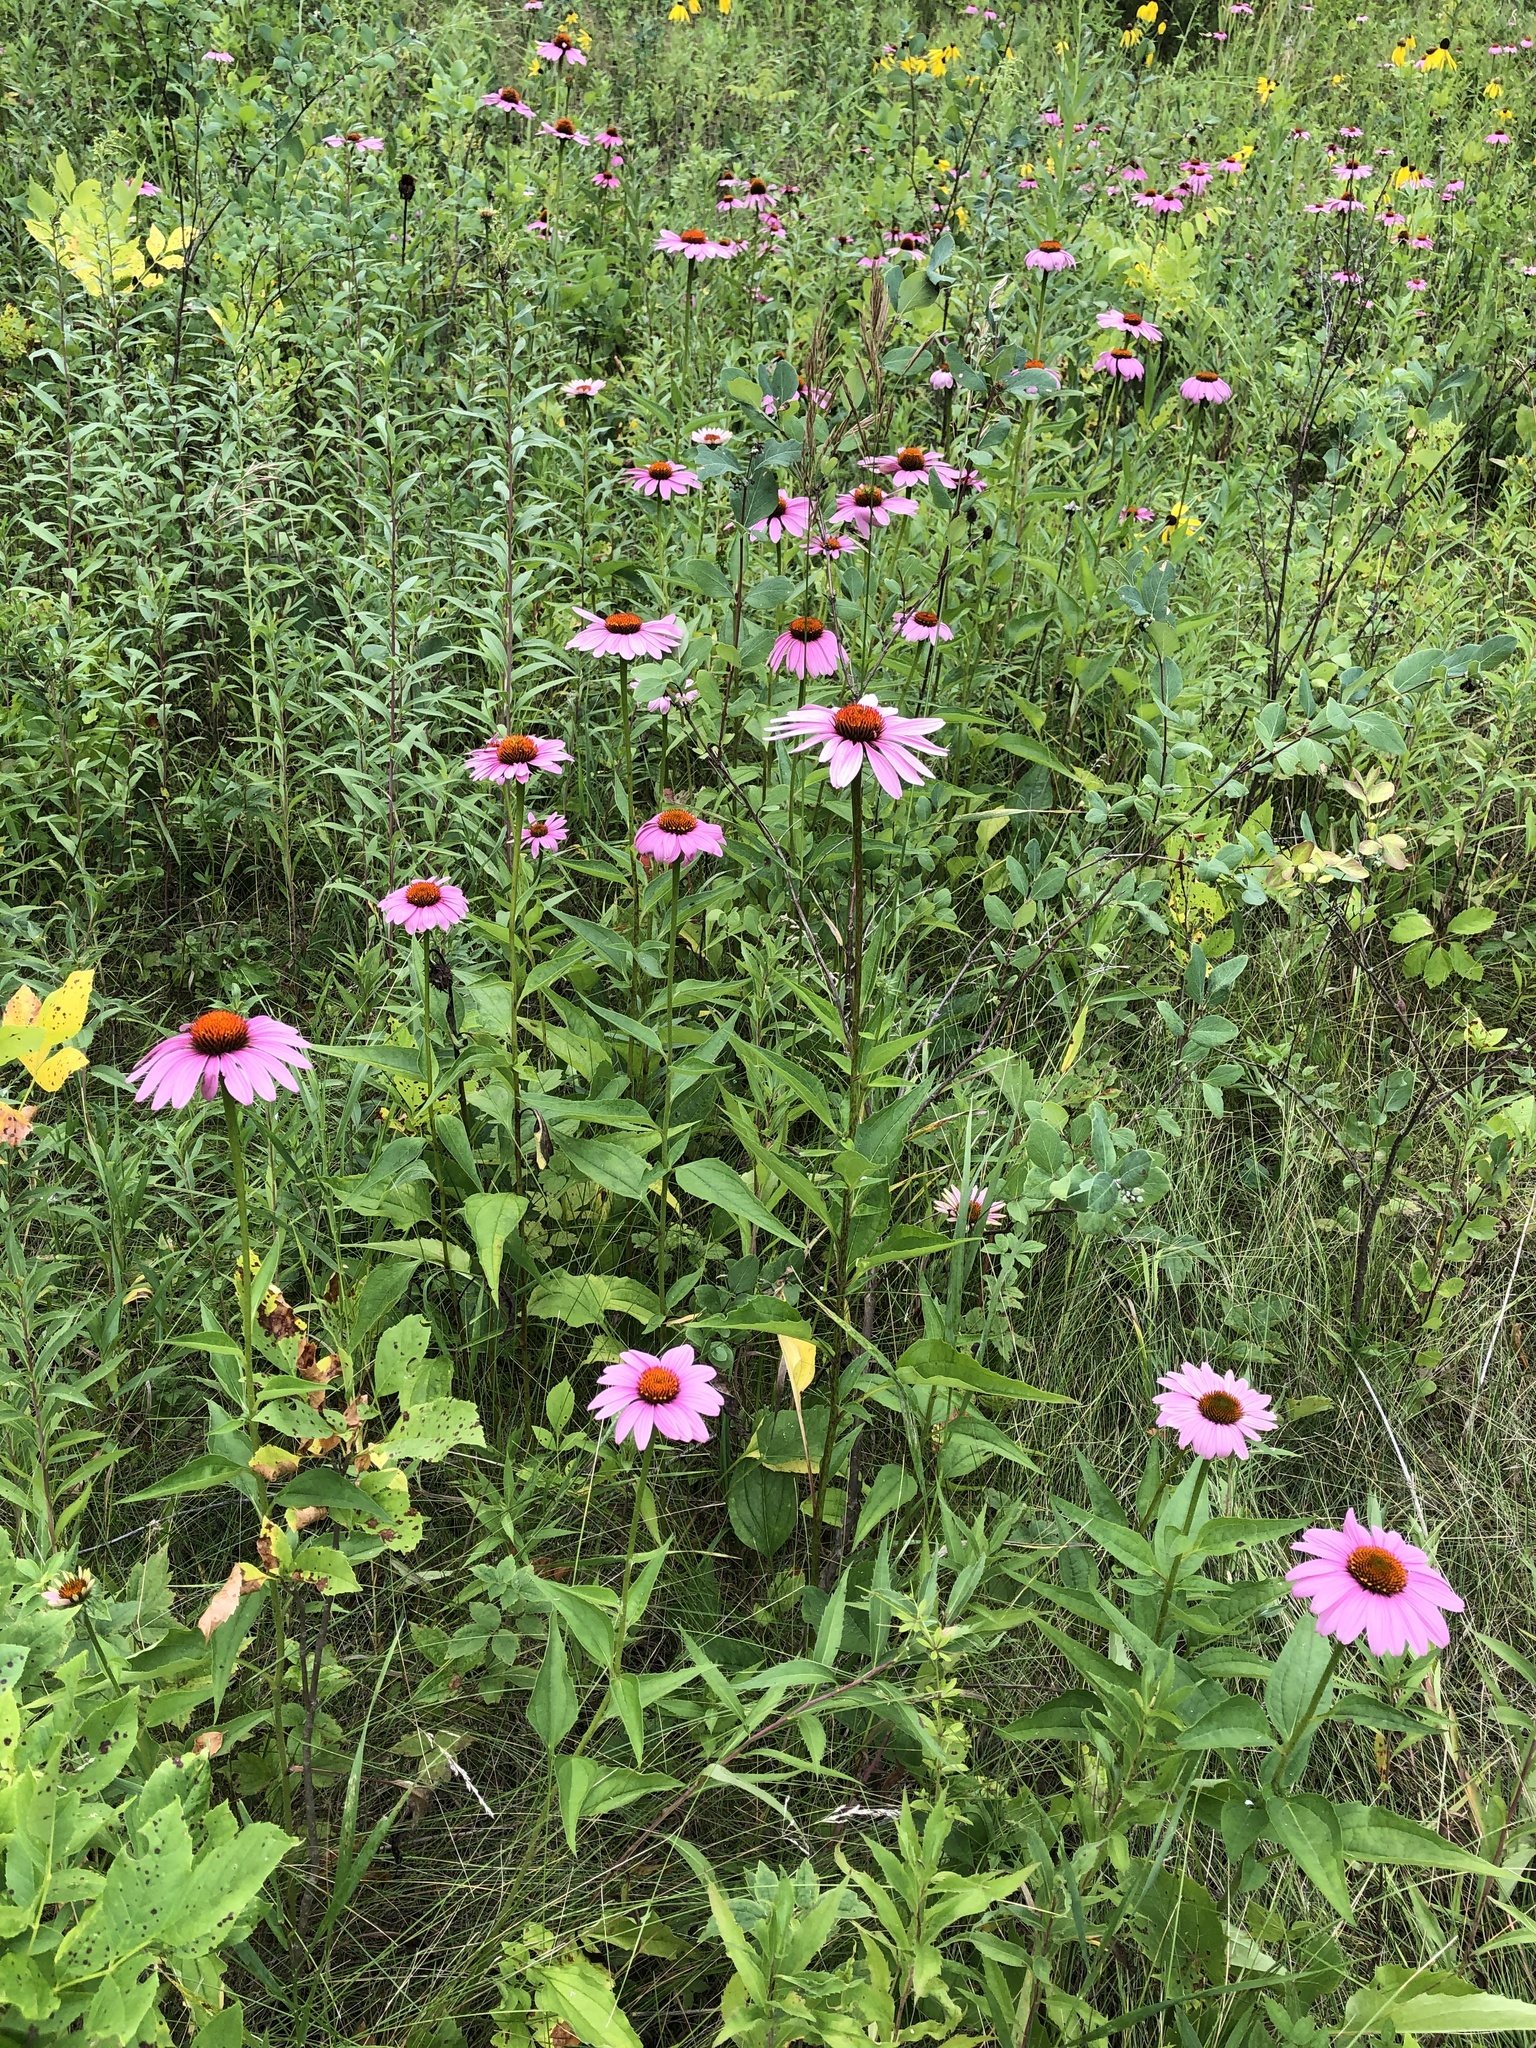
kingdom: Plantae
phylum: Tracheophyta
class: Magnoliopsida
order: Asterales
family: Asteraceae
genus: Echinacea
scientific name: Echinacea purpurea
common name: Broad-leaved purple coneflower
